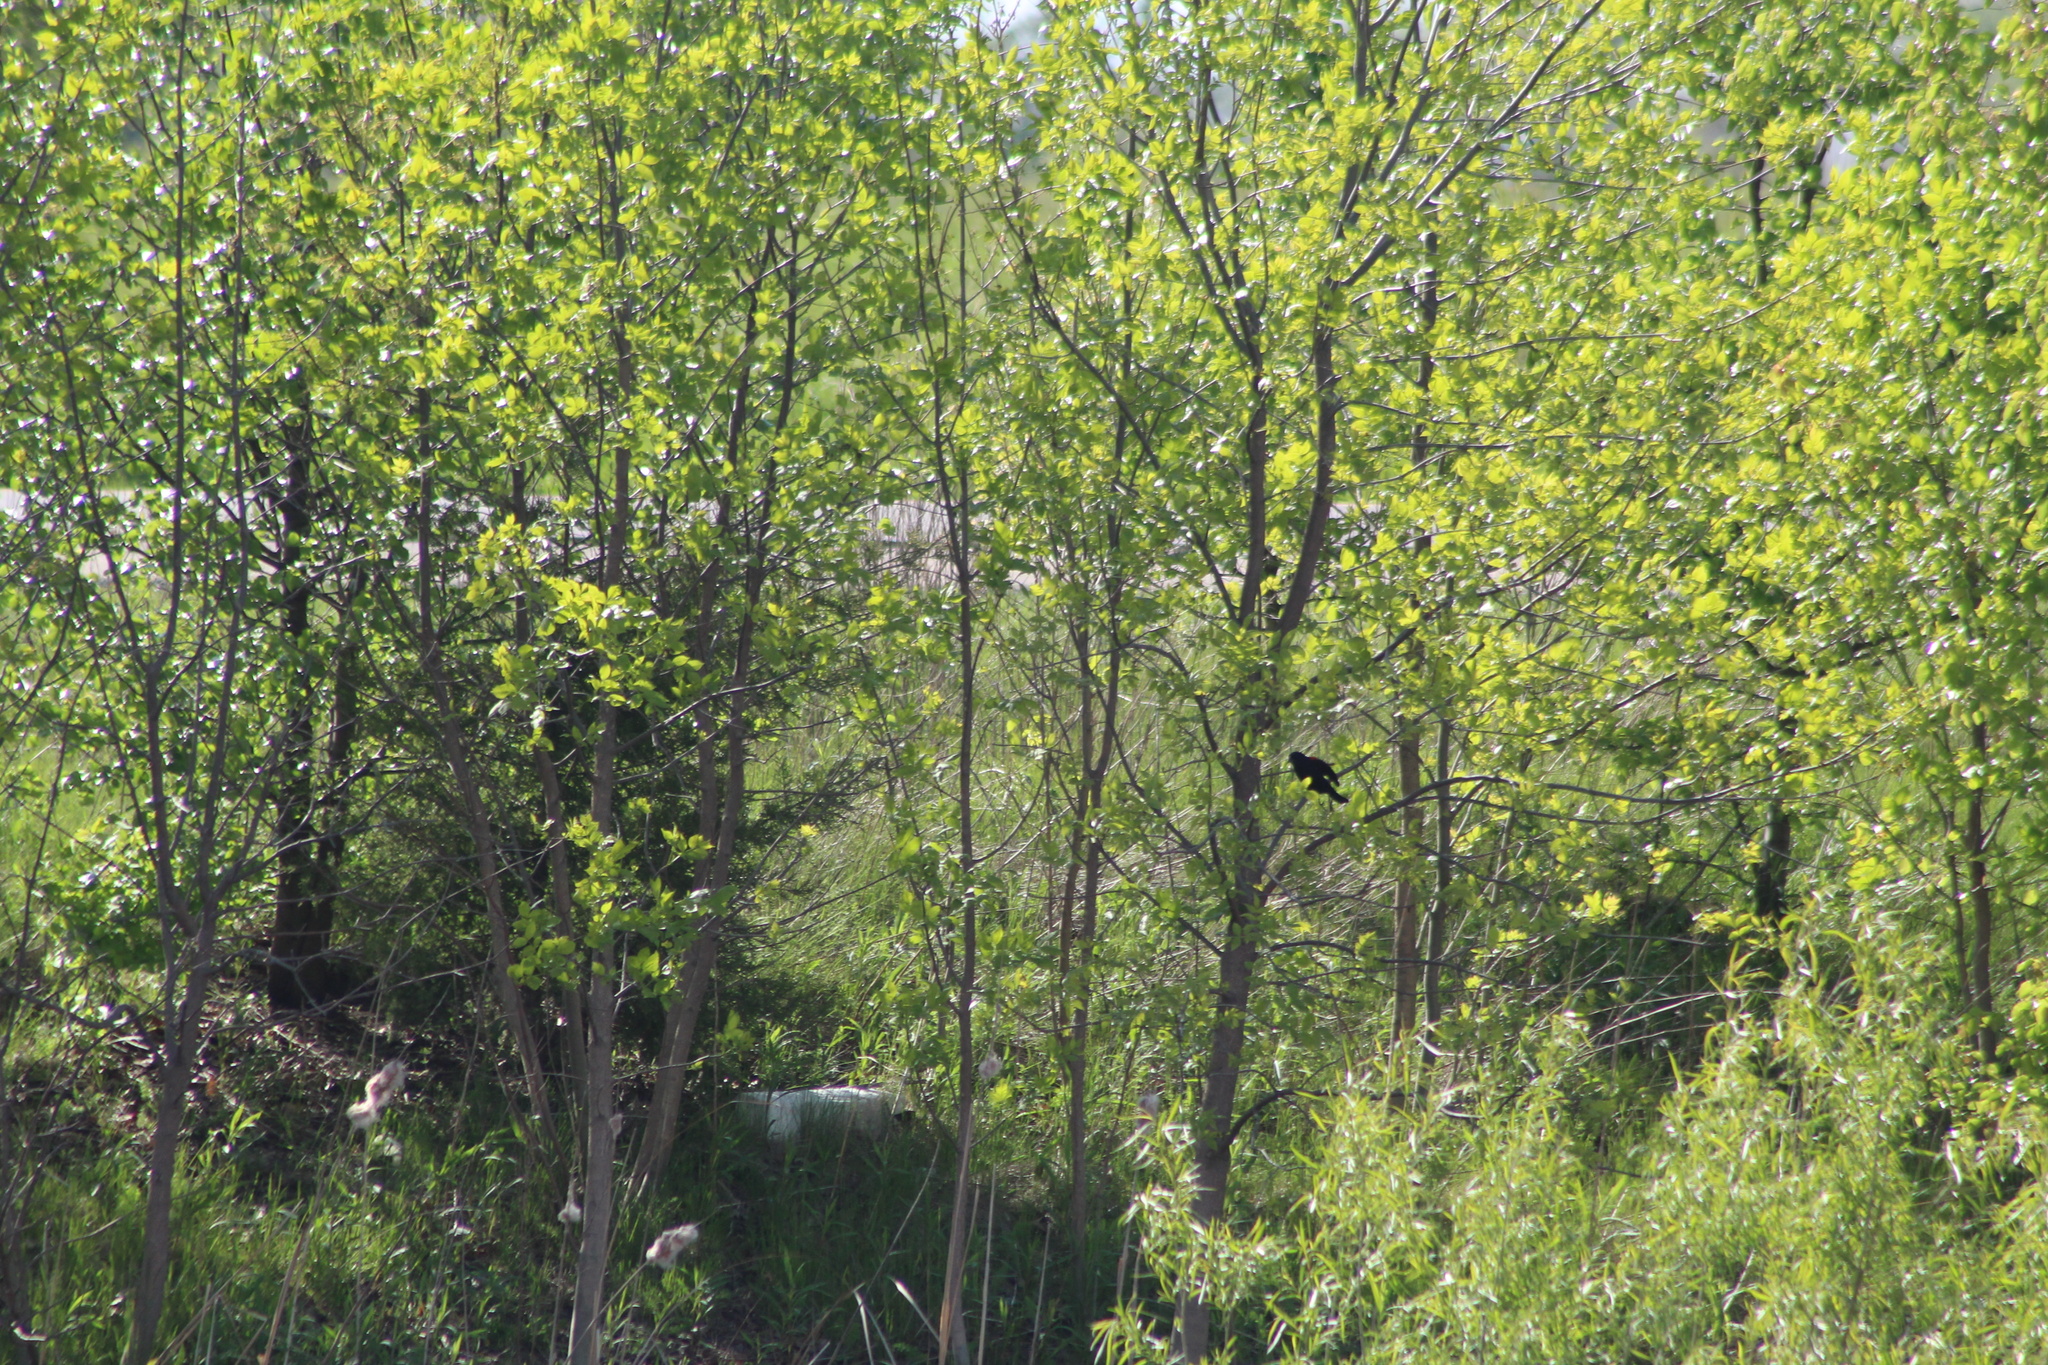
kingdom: Animalia
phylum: Chordata
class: Aves
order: Passeriformes
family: Icteridae
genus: Agelaius
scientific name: Agelaius phoeniceus
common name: Red-winged blackbird
